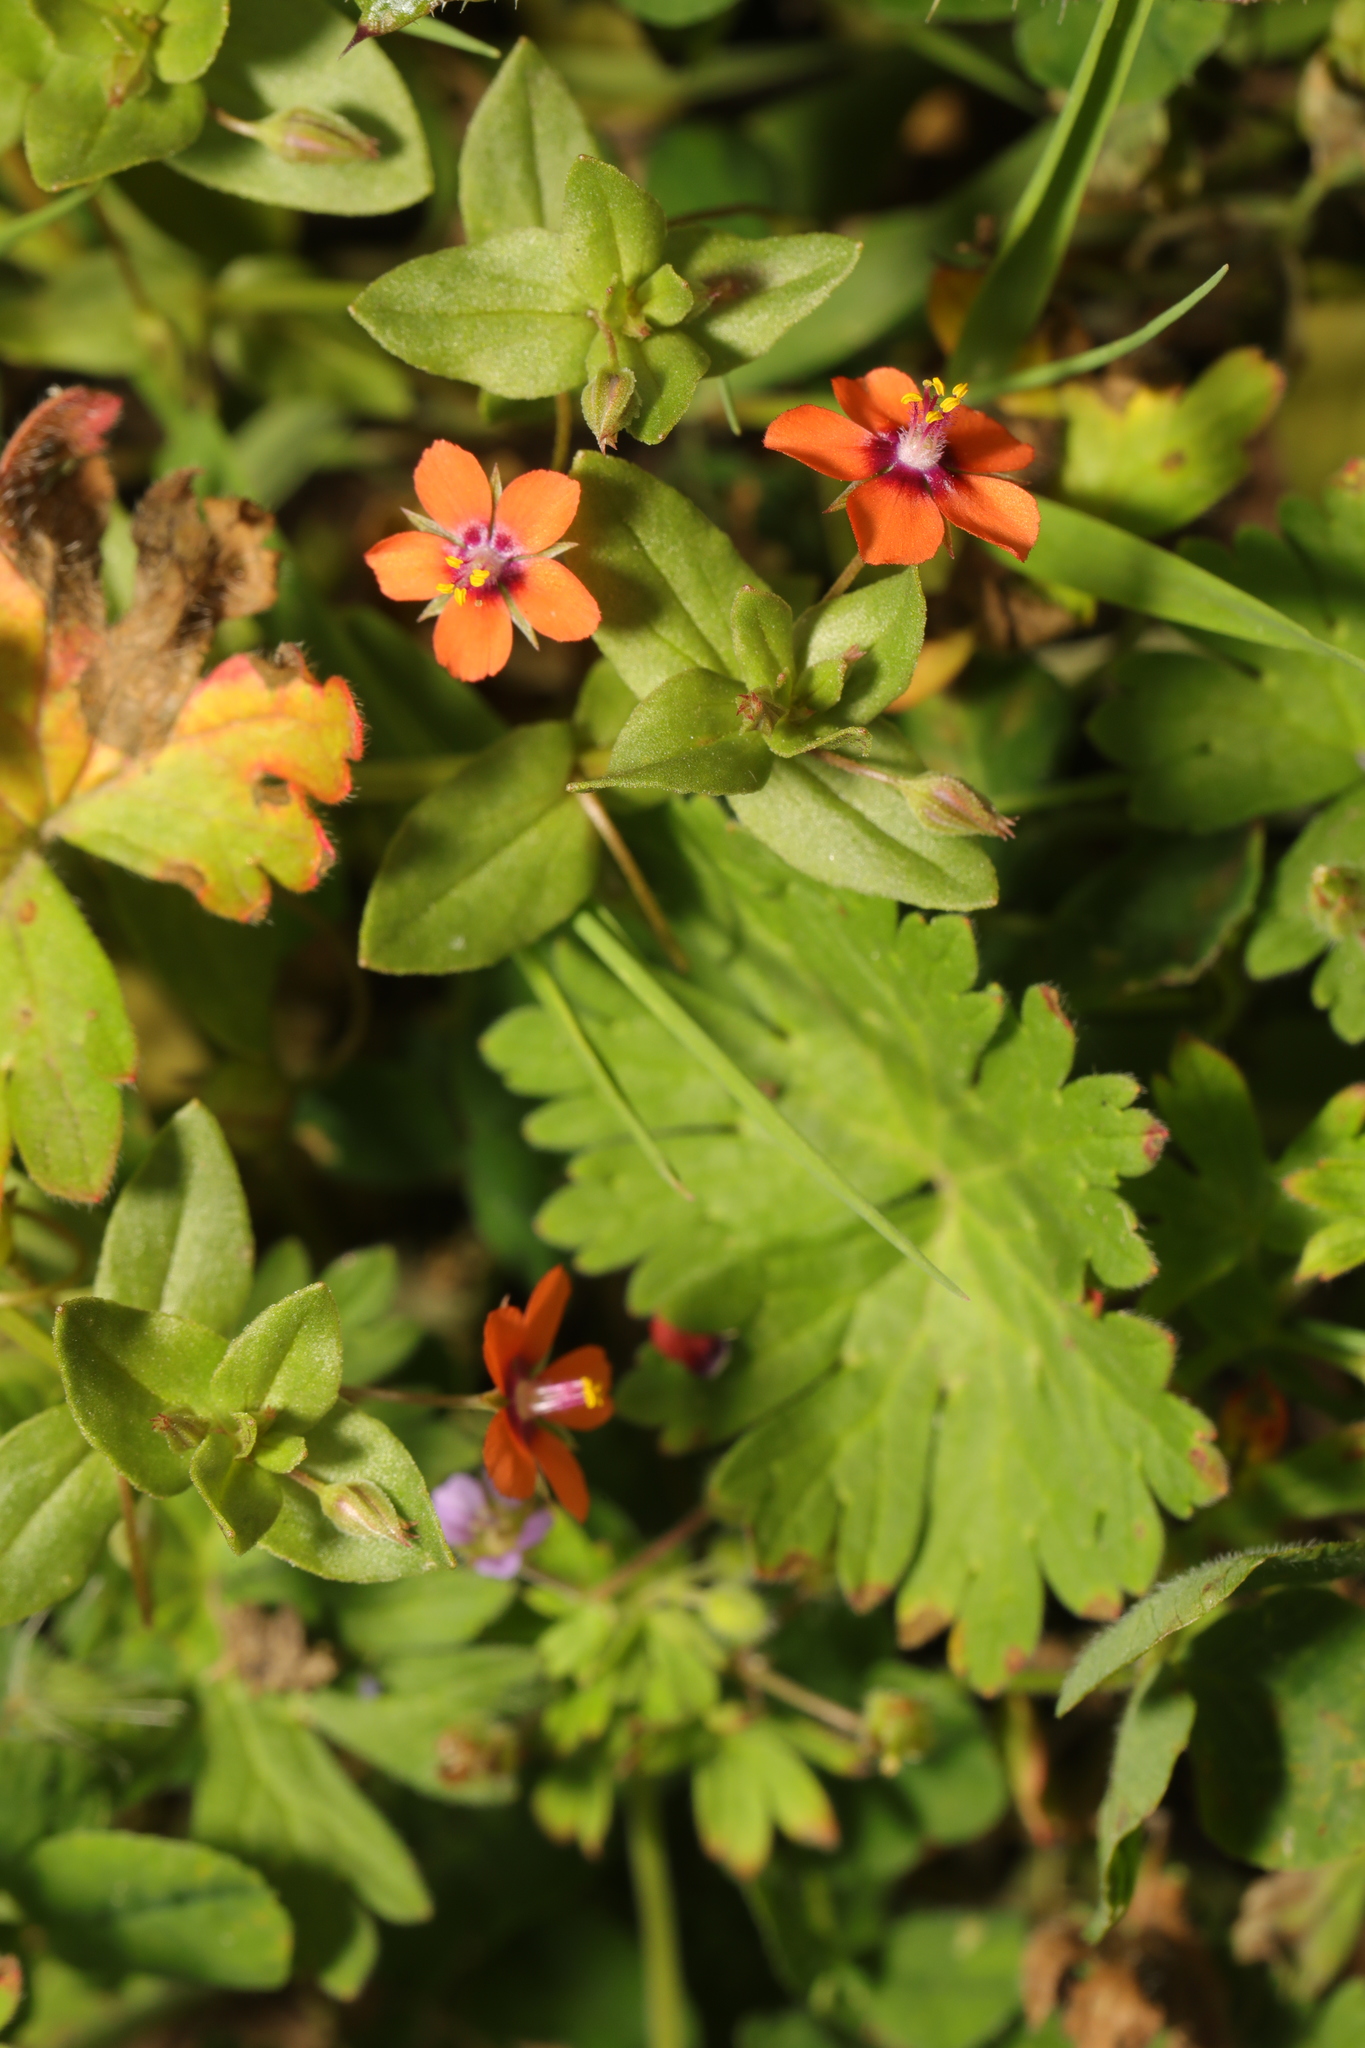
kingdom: Plantae
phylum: Tracheophyta
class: Magnoliopsida
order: Ericales
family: Primulaceae
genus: Lysimachia
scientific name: Lysimachia arvensis
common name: Scarlet pimpernel
